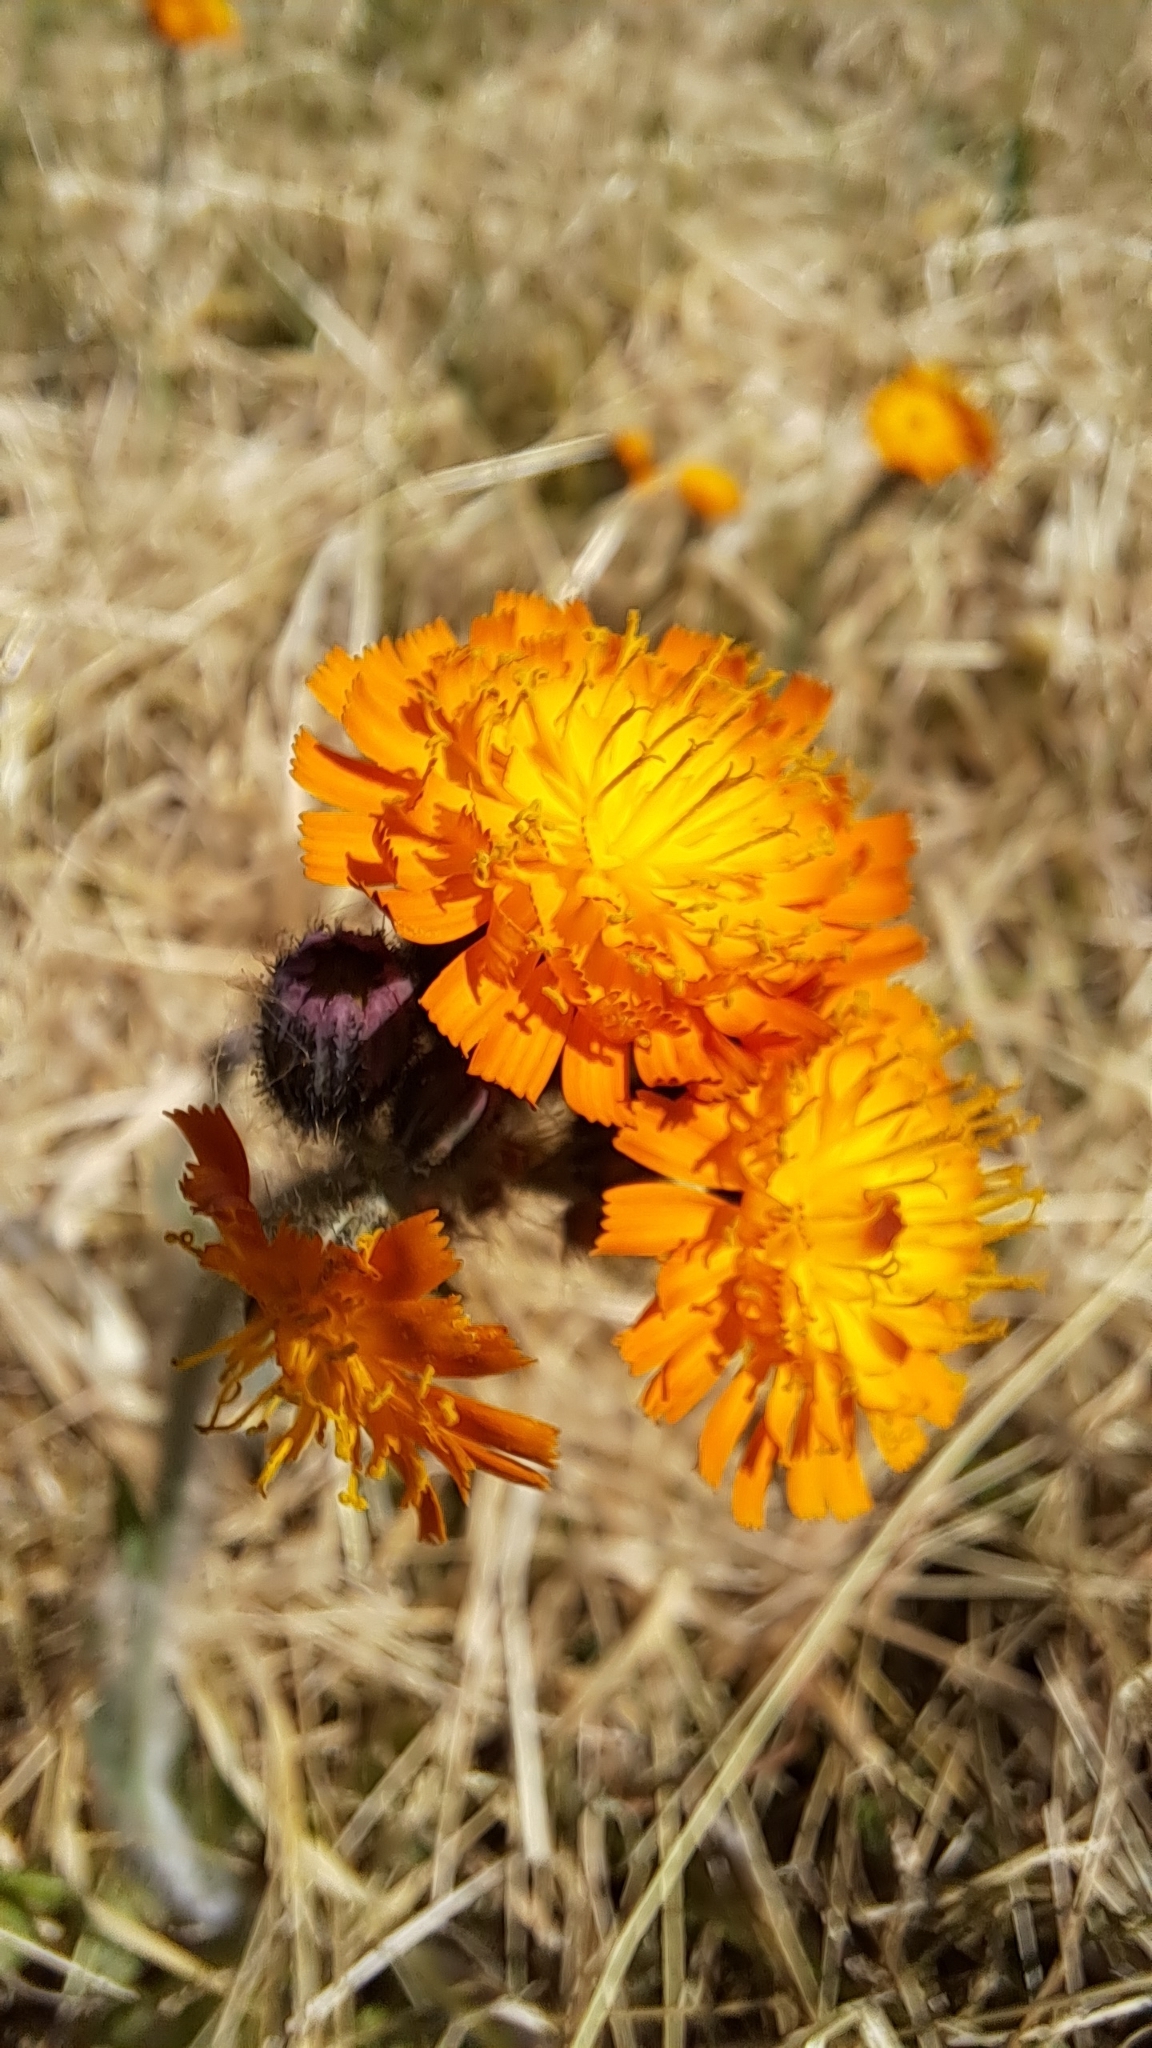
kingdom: Plantae
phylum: Tracheophyta
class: Magnoliopsida
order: Asterales
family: Asteraceae
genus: Pilosella
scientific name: Pilosella aurantiaca
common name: Fox-and-cubs
